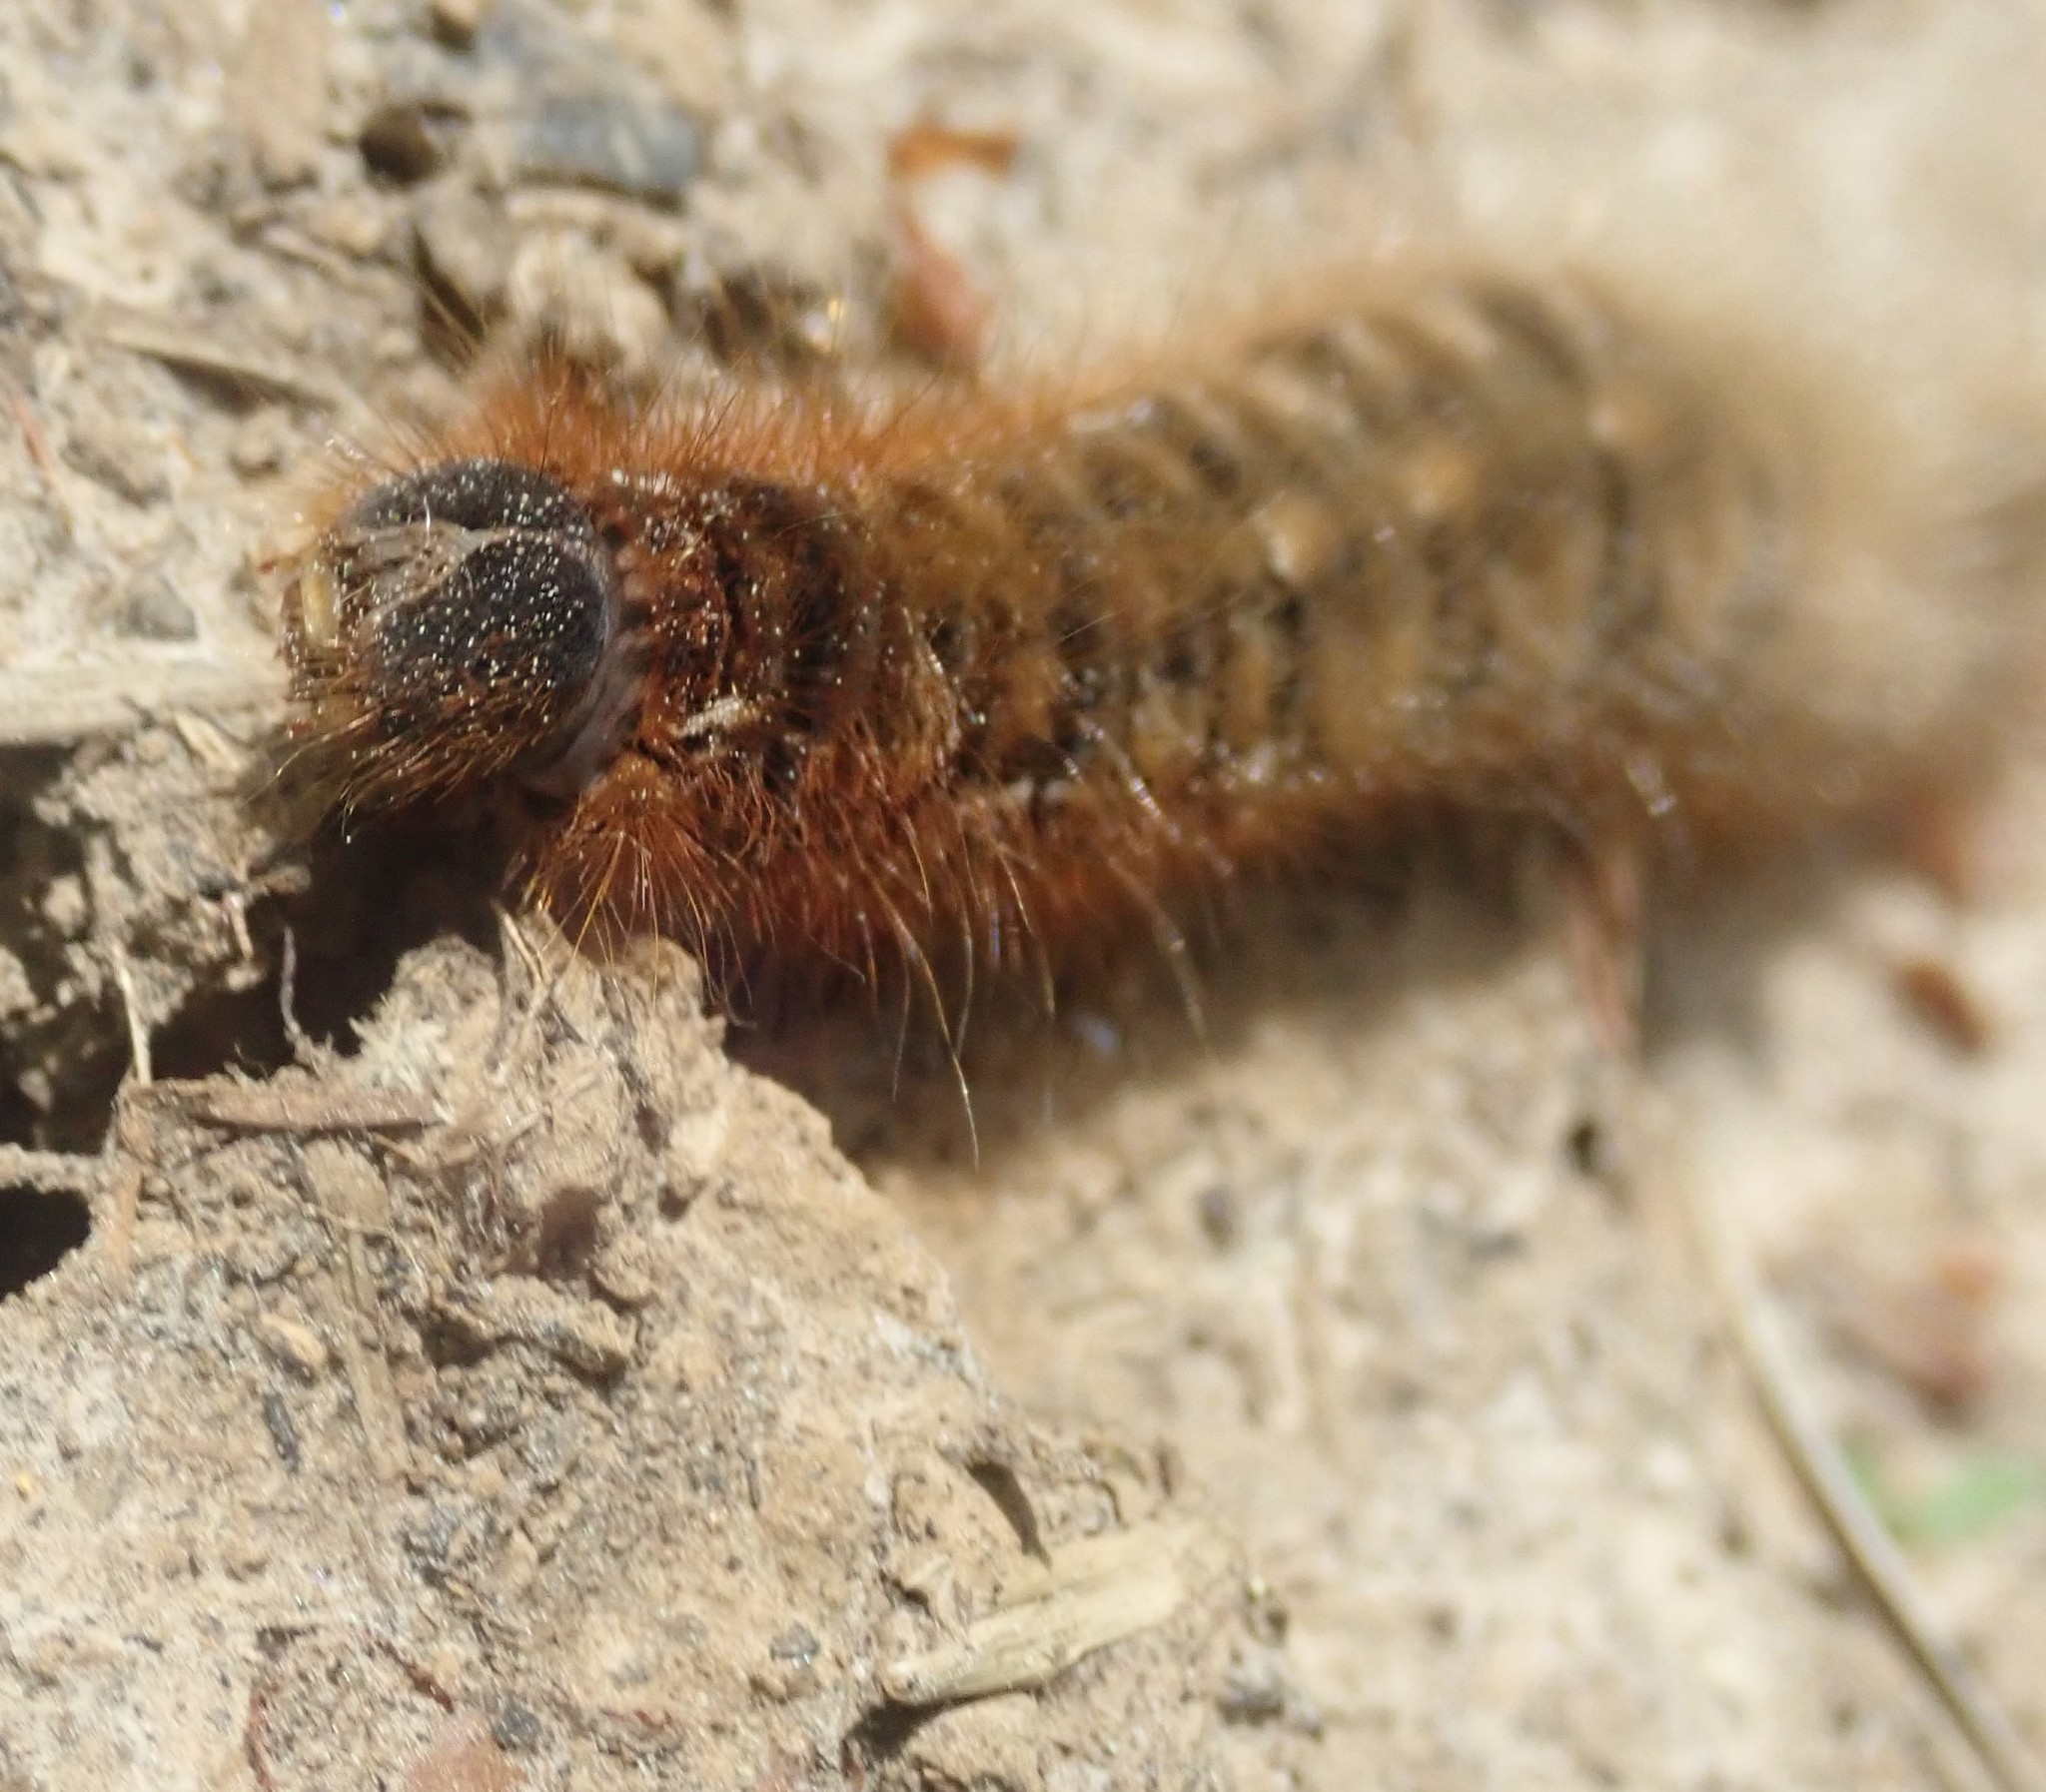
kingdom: Animalia
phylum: Arthropoda
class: Insecta
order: Lepidoptera
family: Lasiocampidae
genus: Lasiocampa
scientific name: Lasiocampa quercus
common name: Oak eggar
